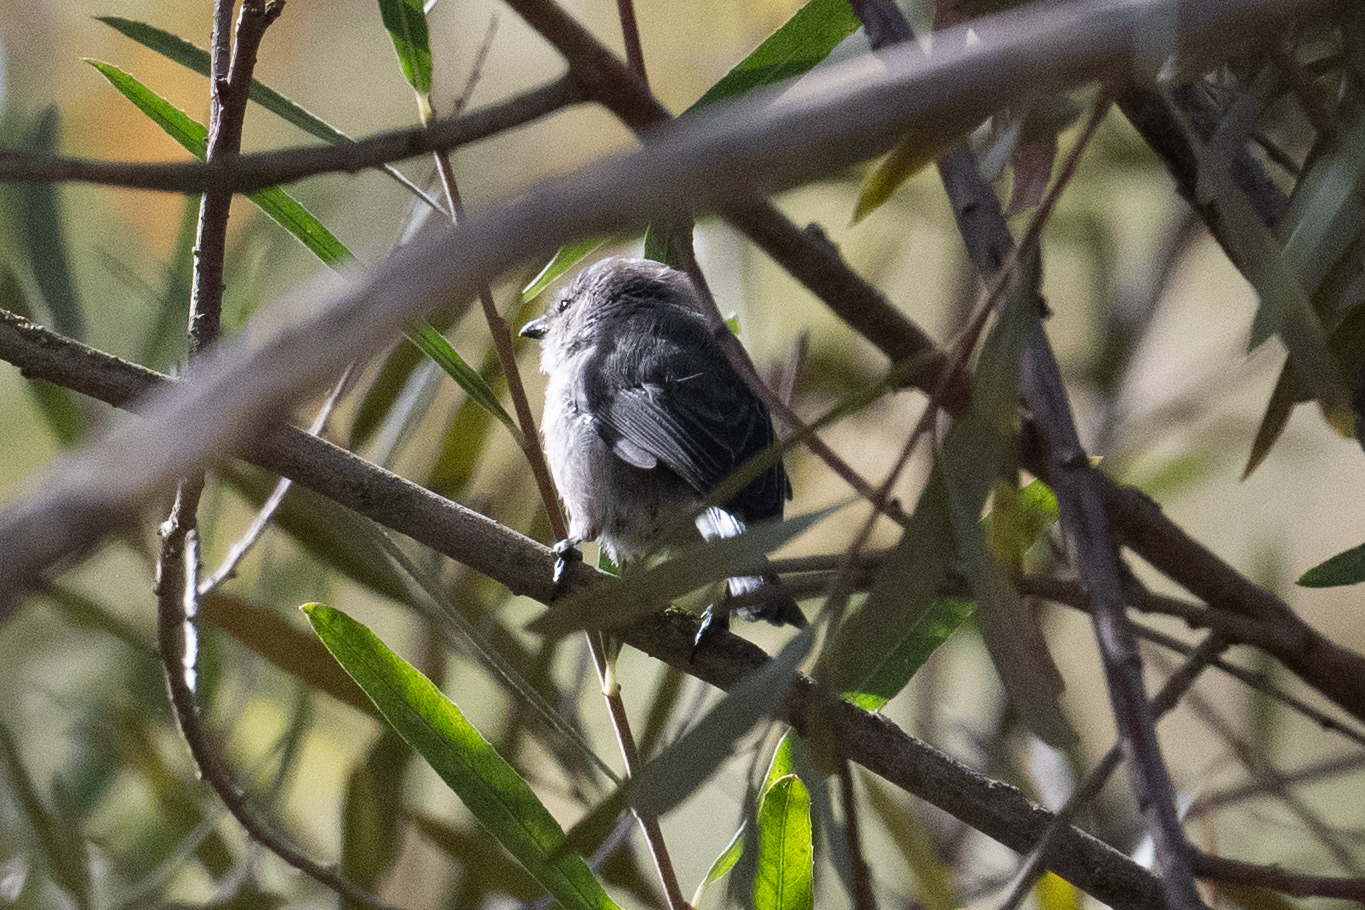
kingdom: Animalia
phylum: Chordata
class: Aves
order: Passeriformes
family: Aegithalidae
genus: Psaltriparus
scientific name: Psaltriparus minimus
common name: American bushtit
